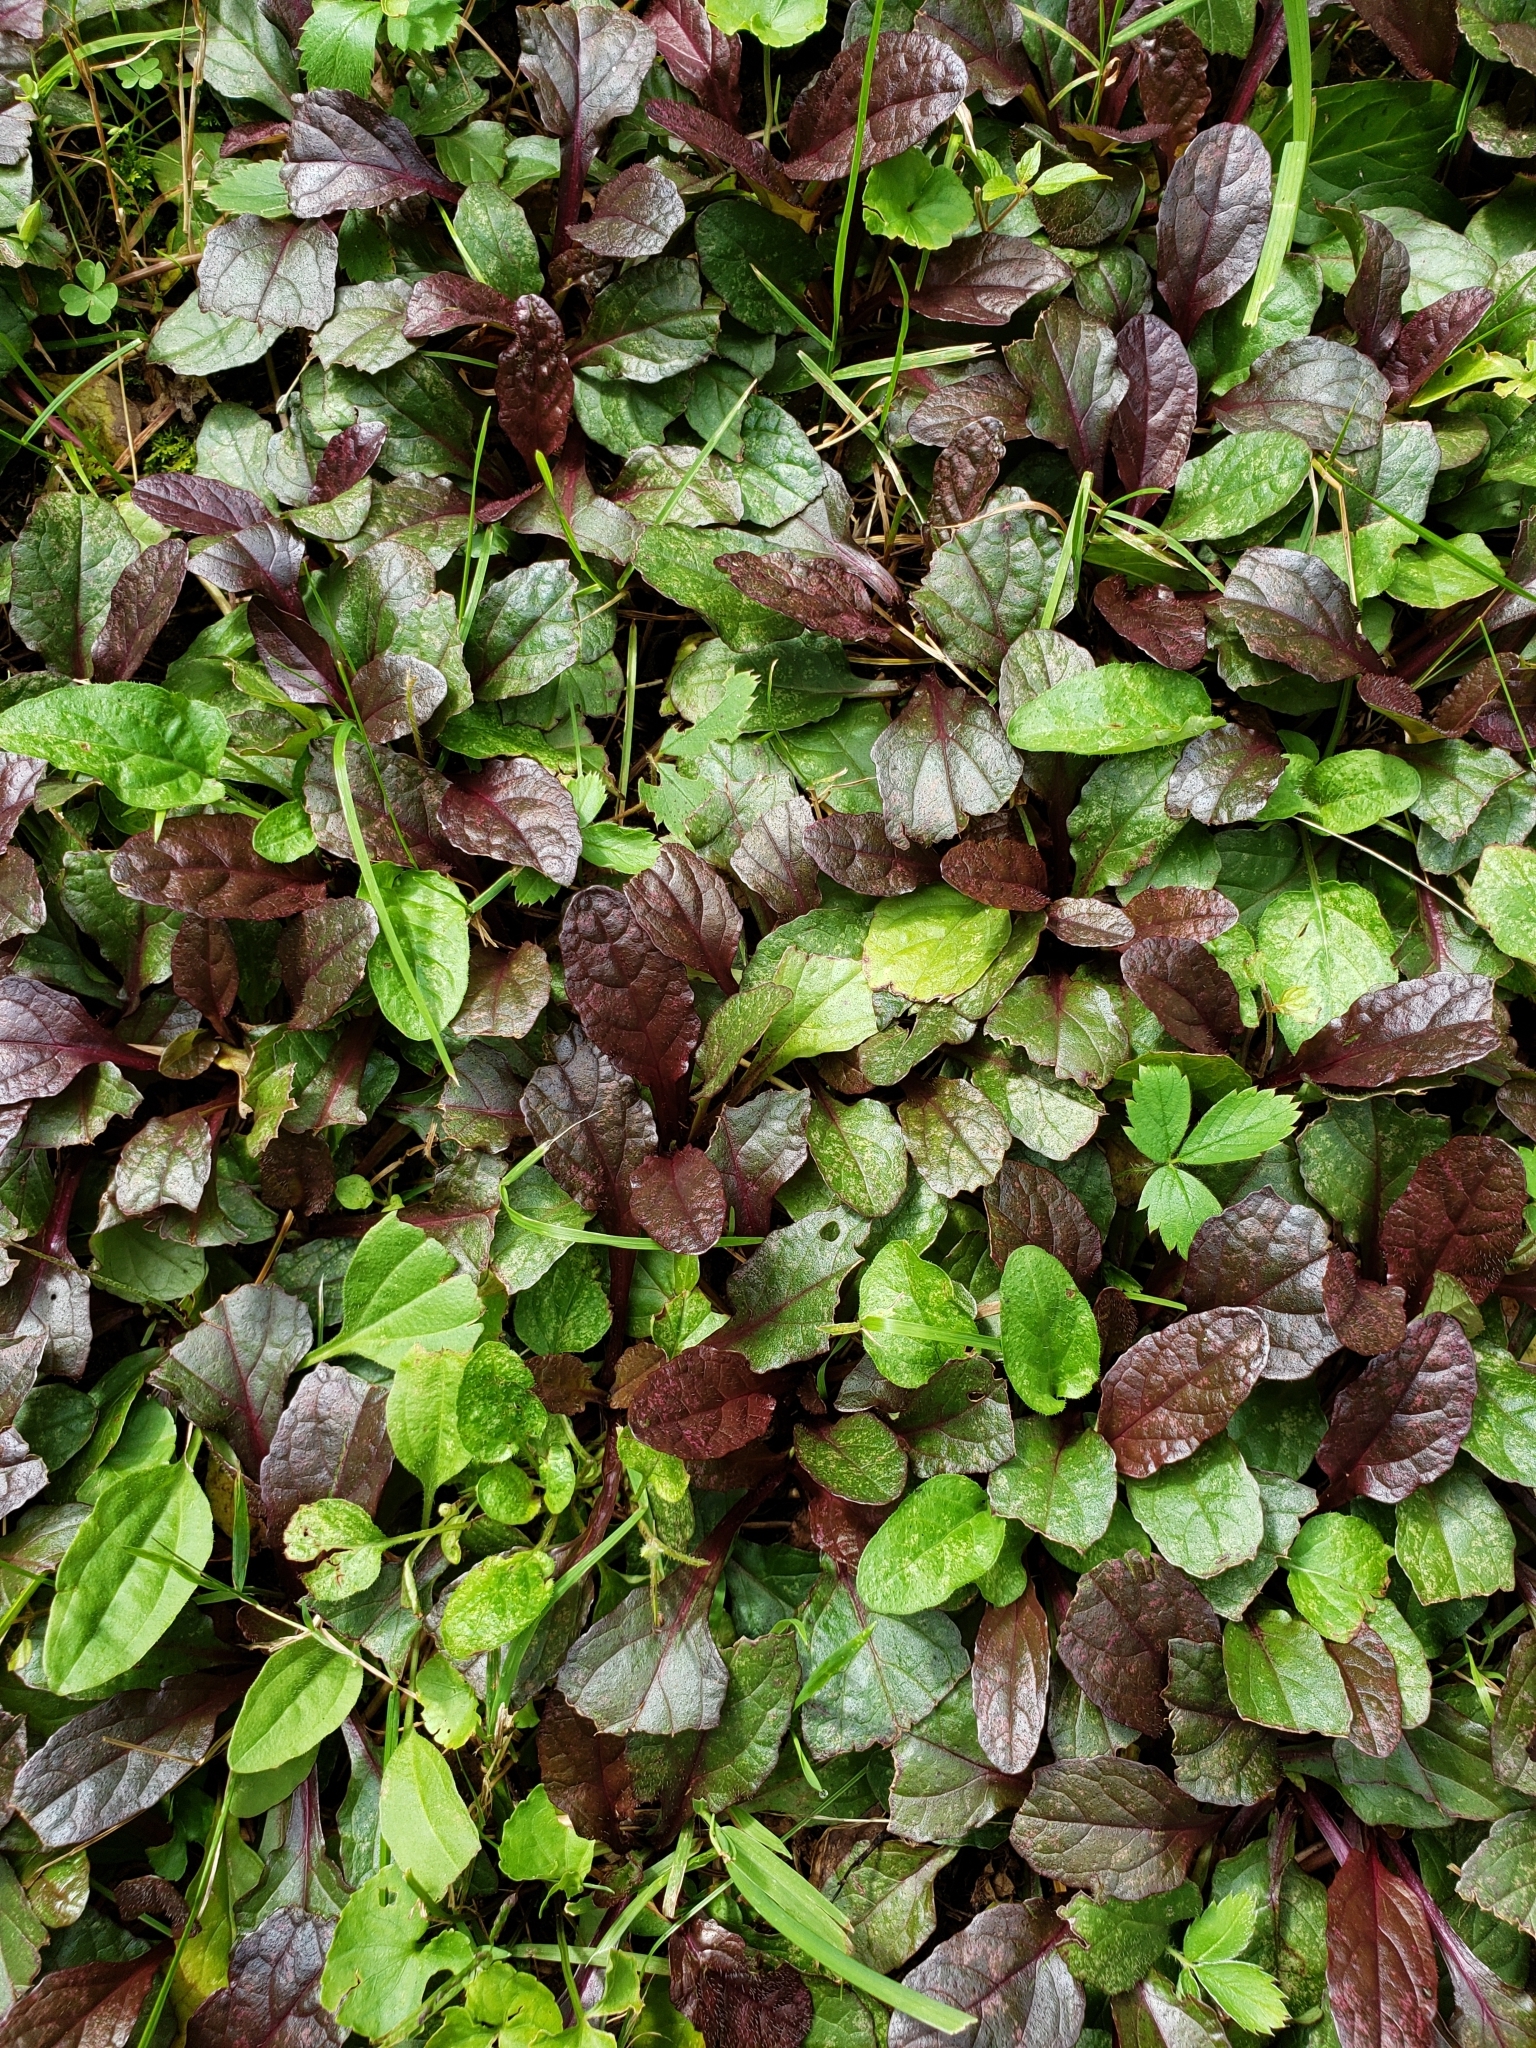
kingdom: Plantae
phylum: Tracheophyta
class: Magnoliopsida
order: Lamiales
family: Lamiaceae
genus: Ajuga
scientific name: Ajuga reptans
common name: Bugle
